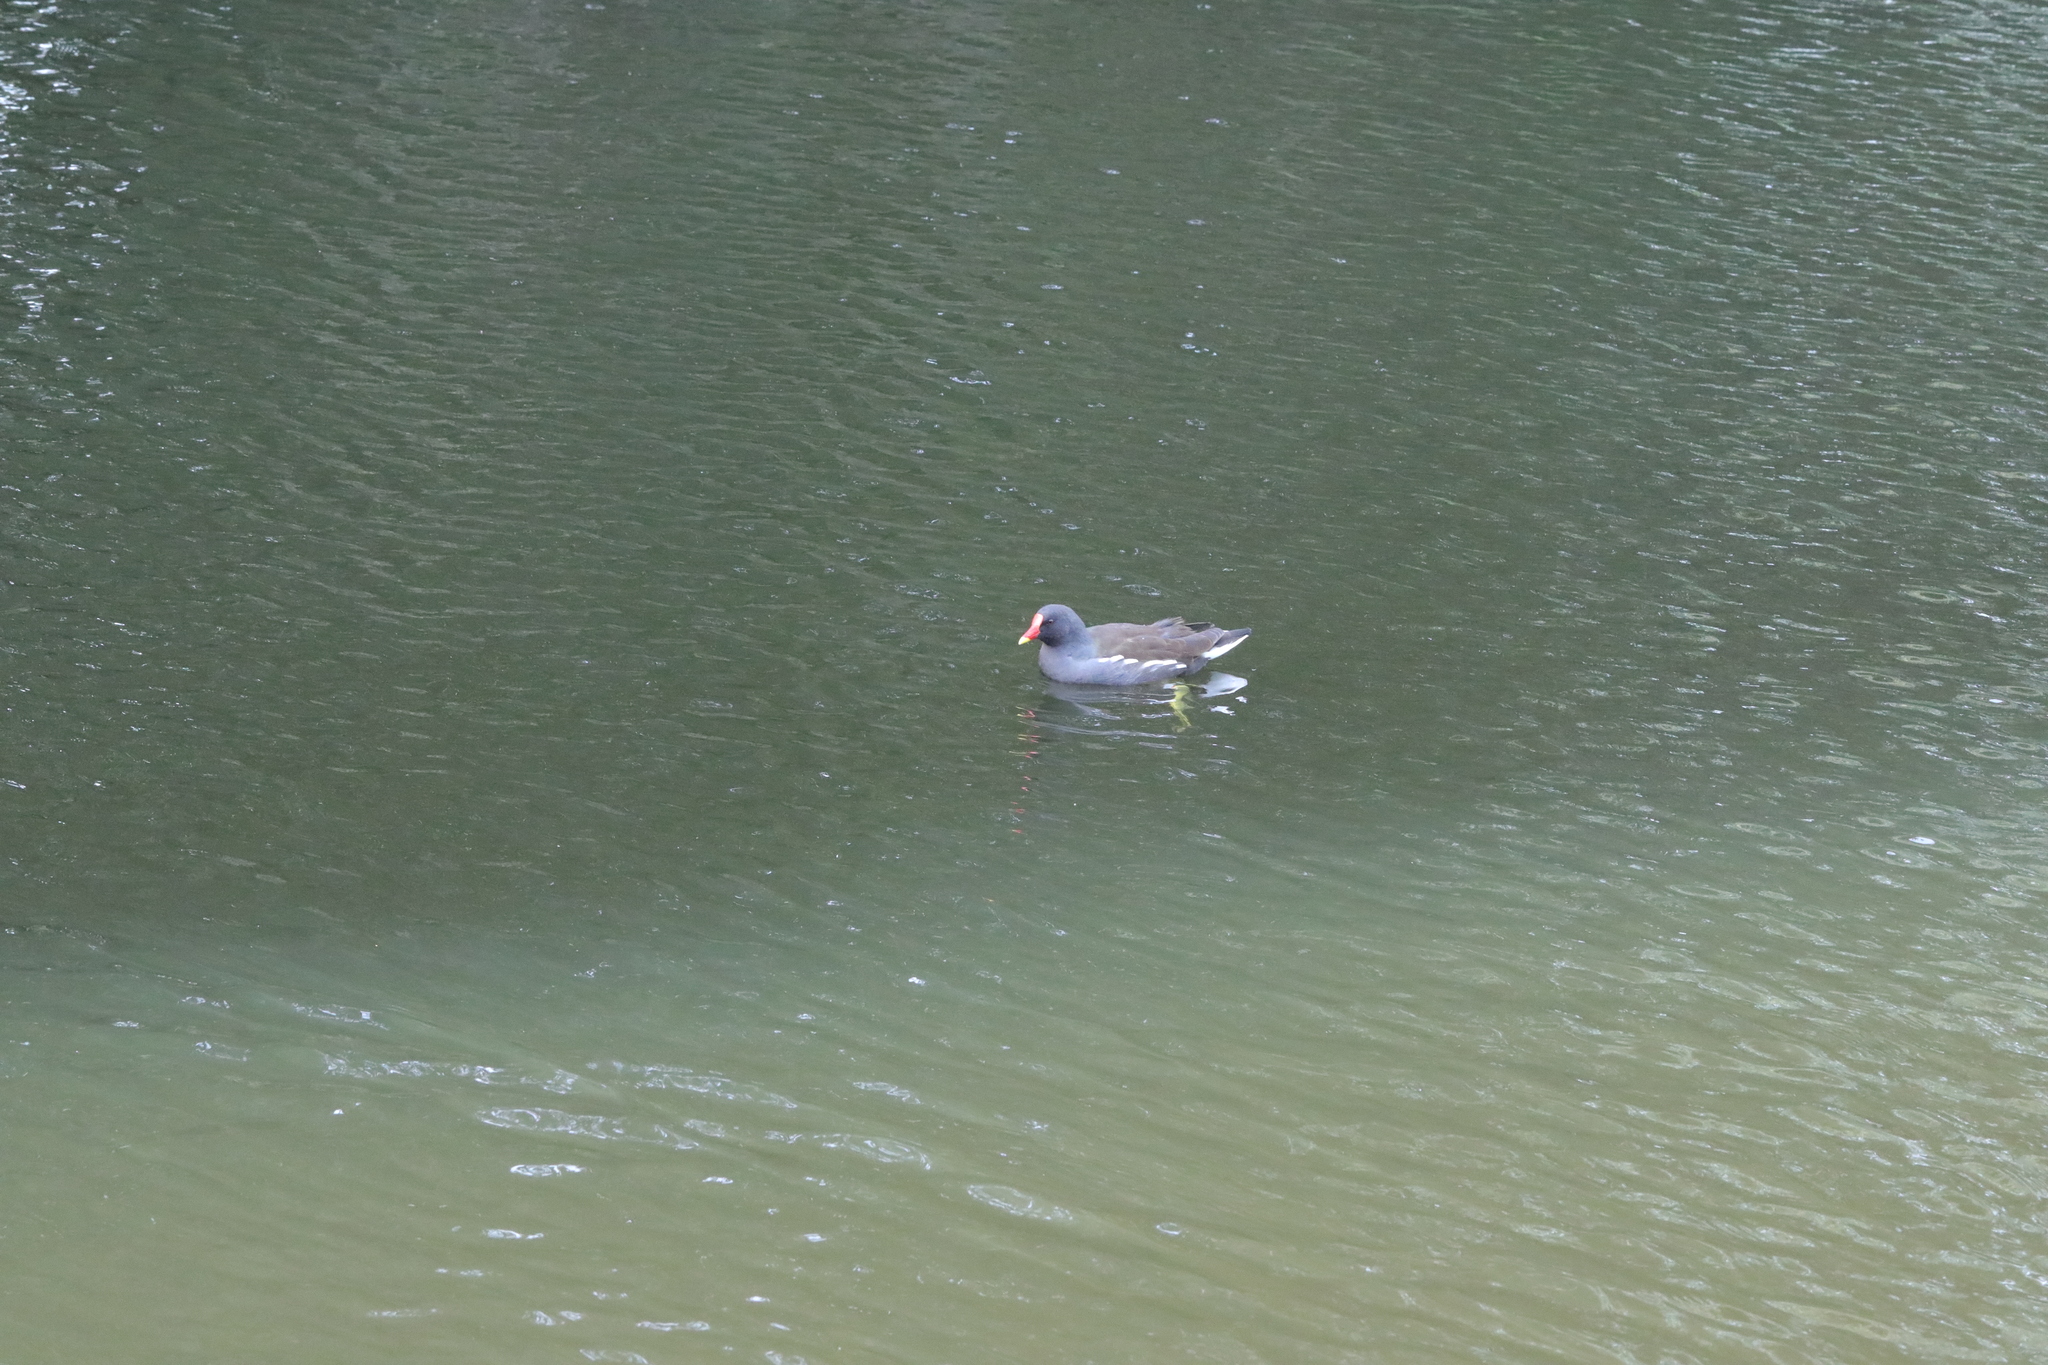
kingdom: Animalia
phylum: Chordata
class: Aves
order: Gruiformes
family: Rallidae
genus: Gallinula
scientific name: Gallinula chloropus
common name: Common moorhen
